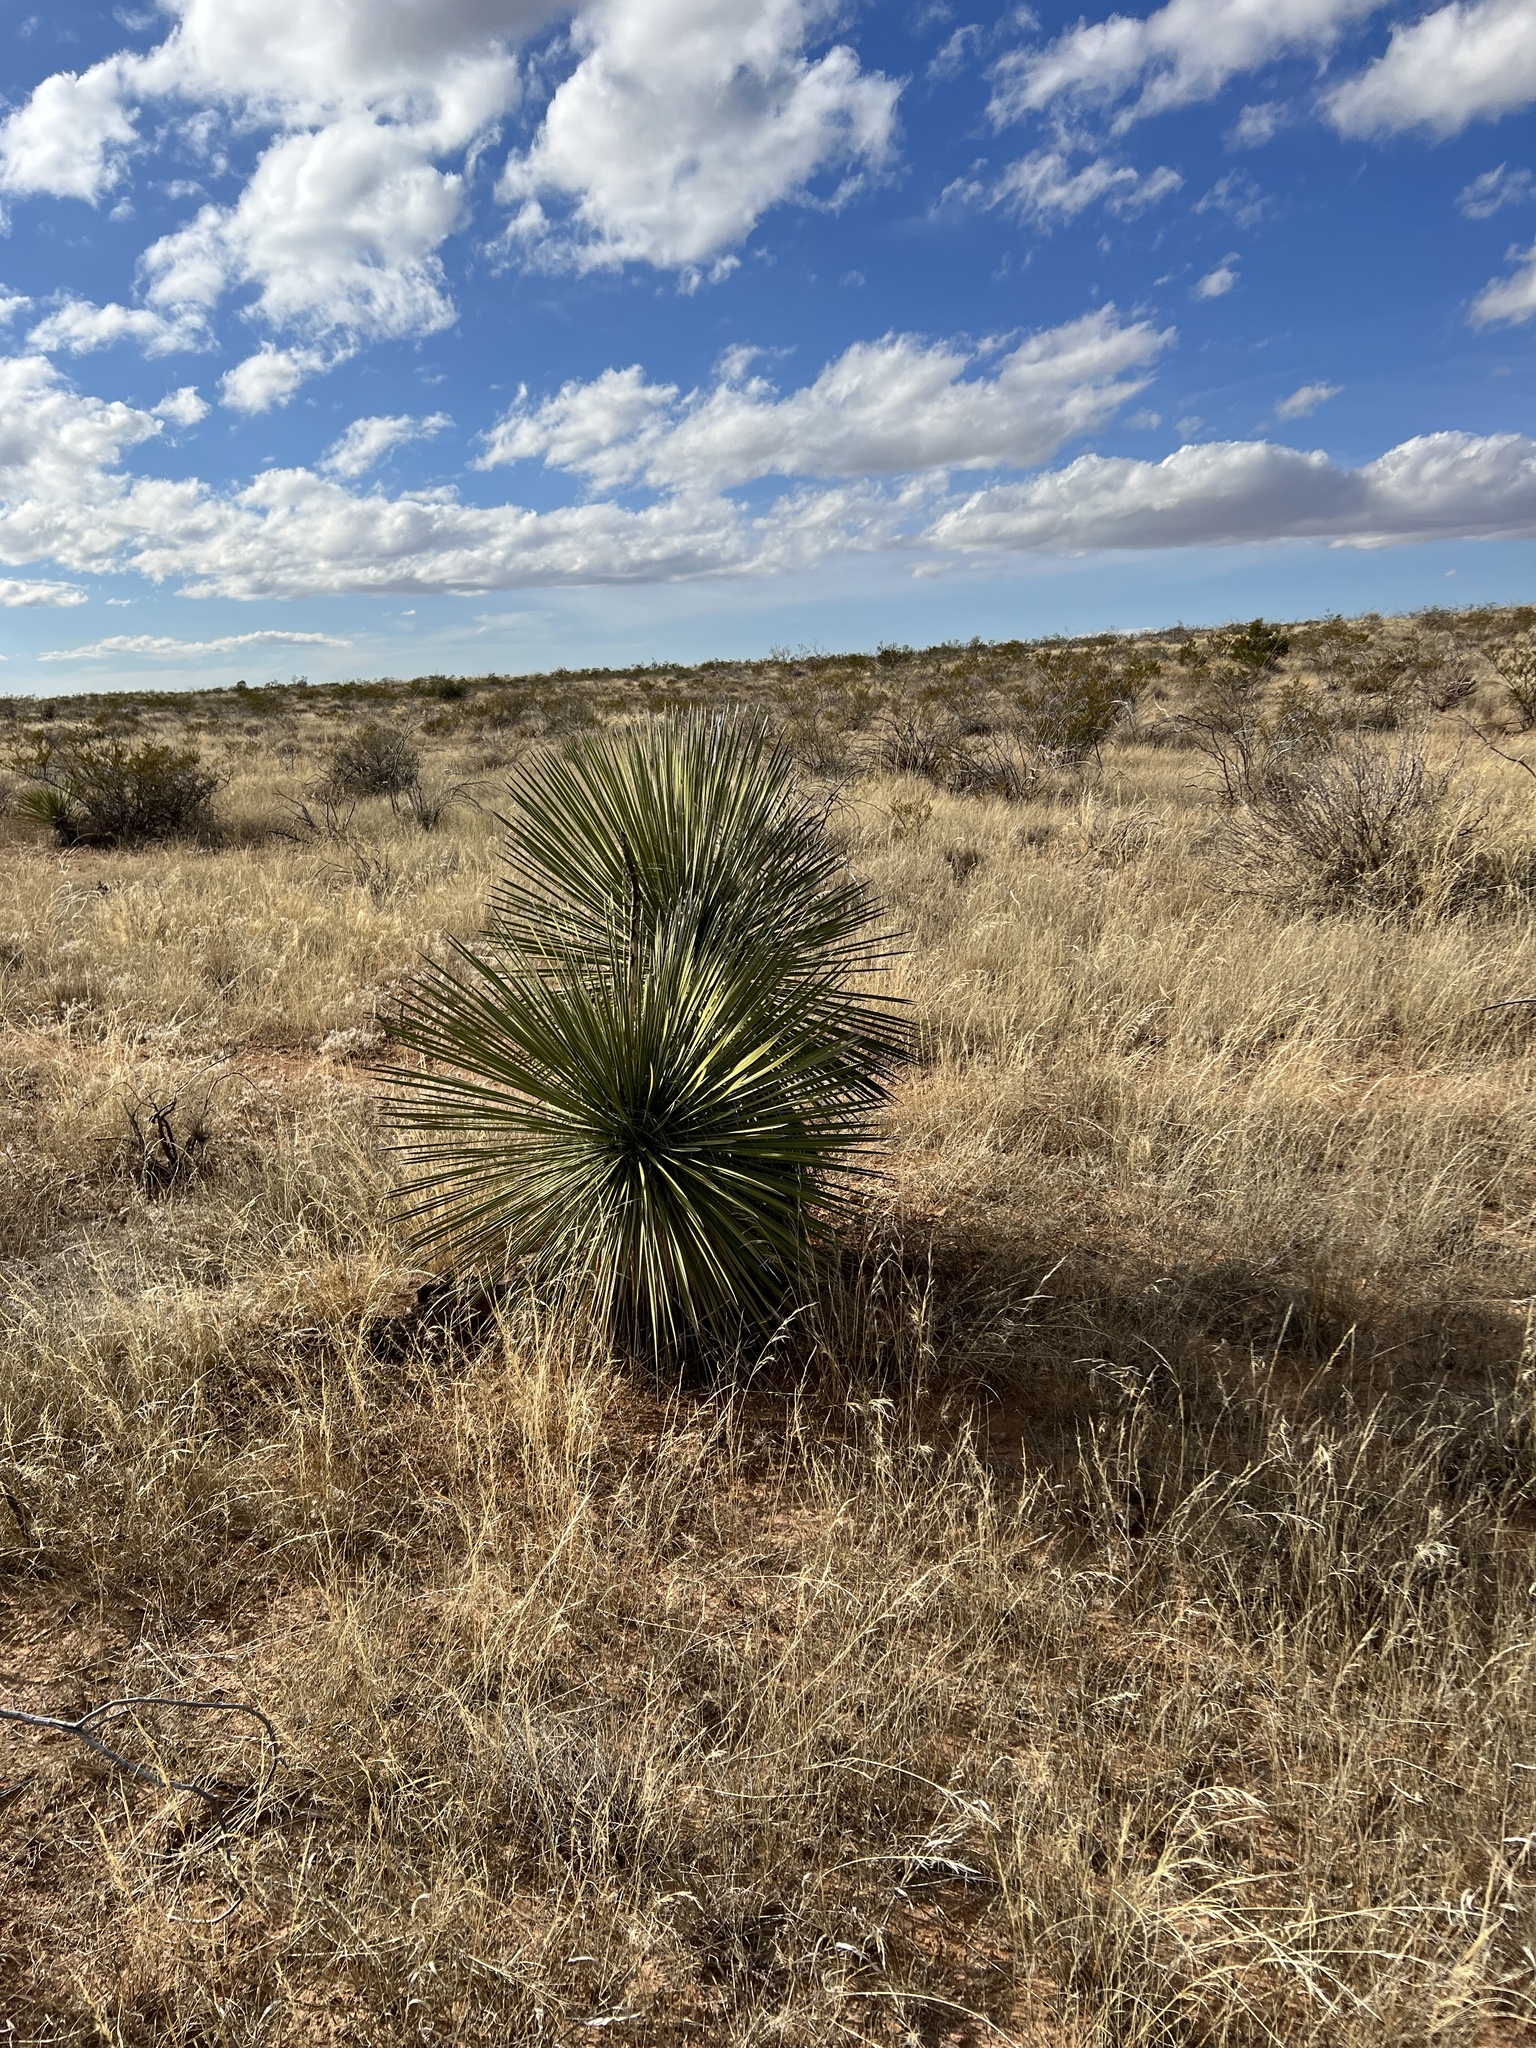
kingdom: Plantae
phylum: Tracheophyta
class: Liliopsida
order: Asparagales
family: Asparagaceae
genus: Yucca
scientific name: Yucca elata
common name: Palmella
